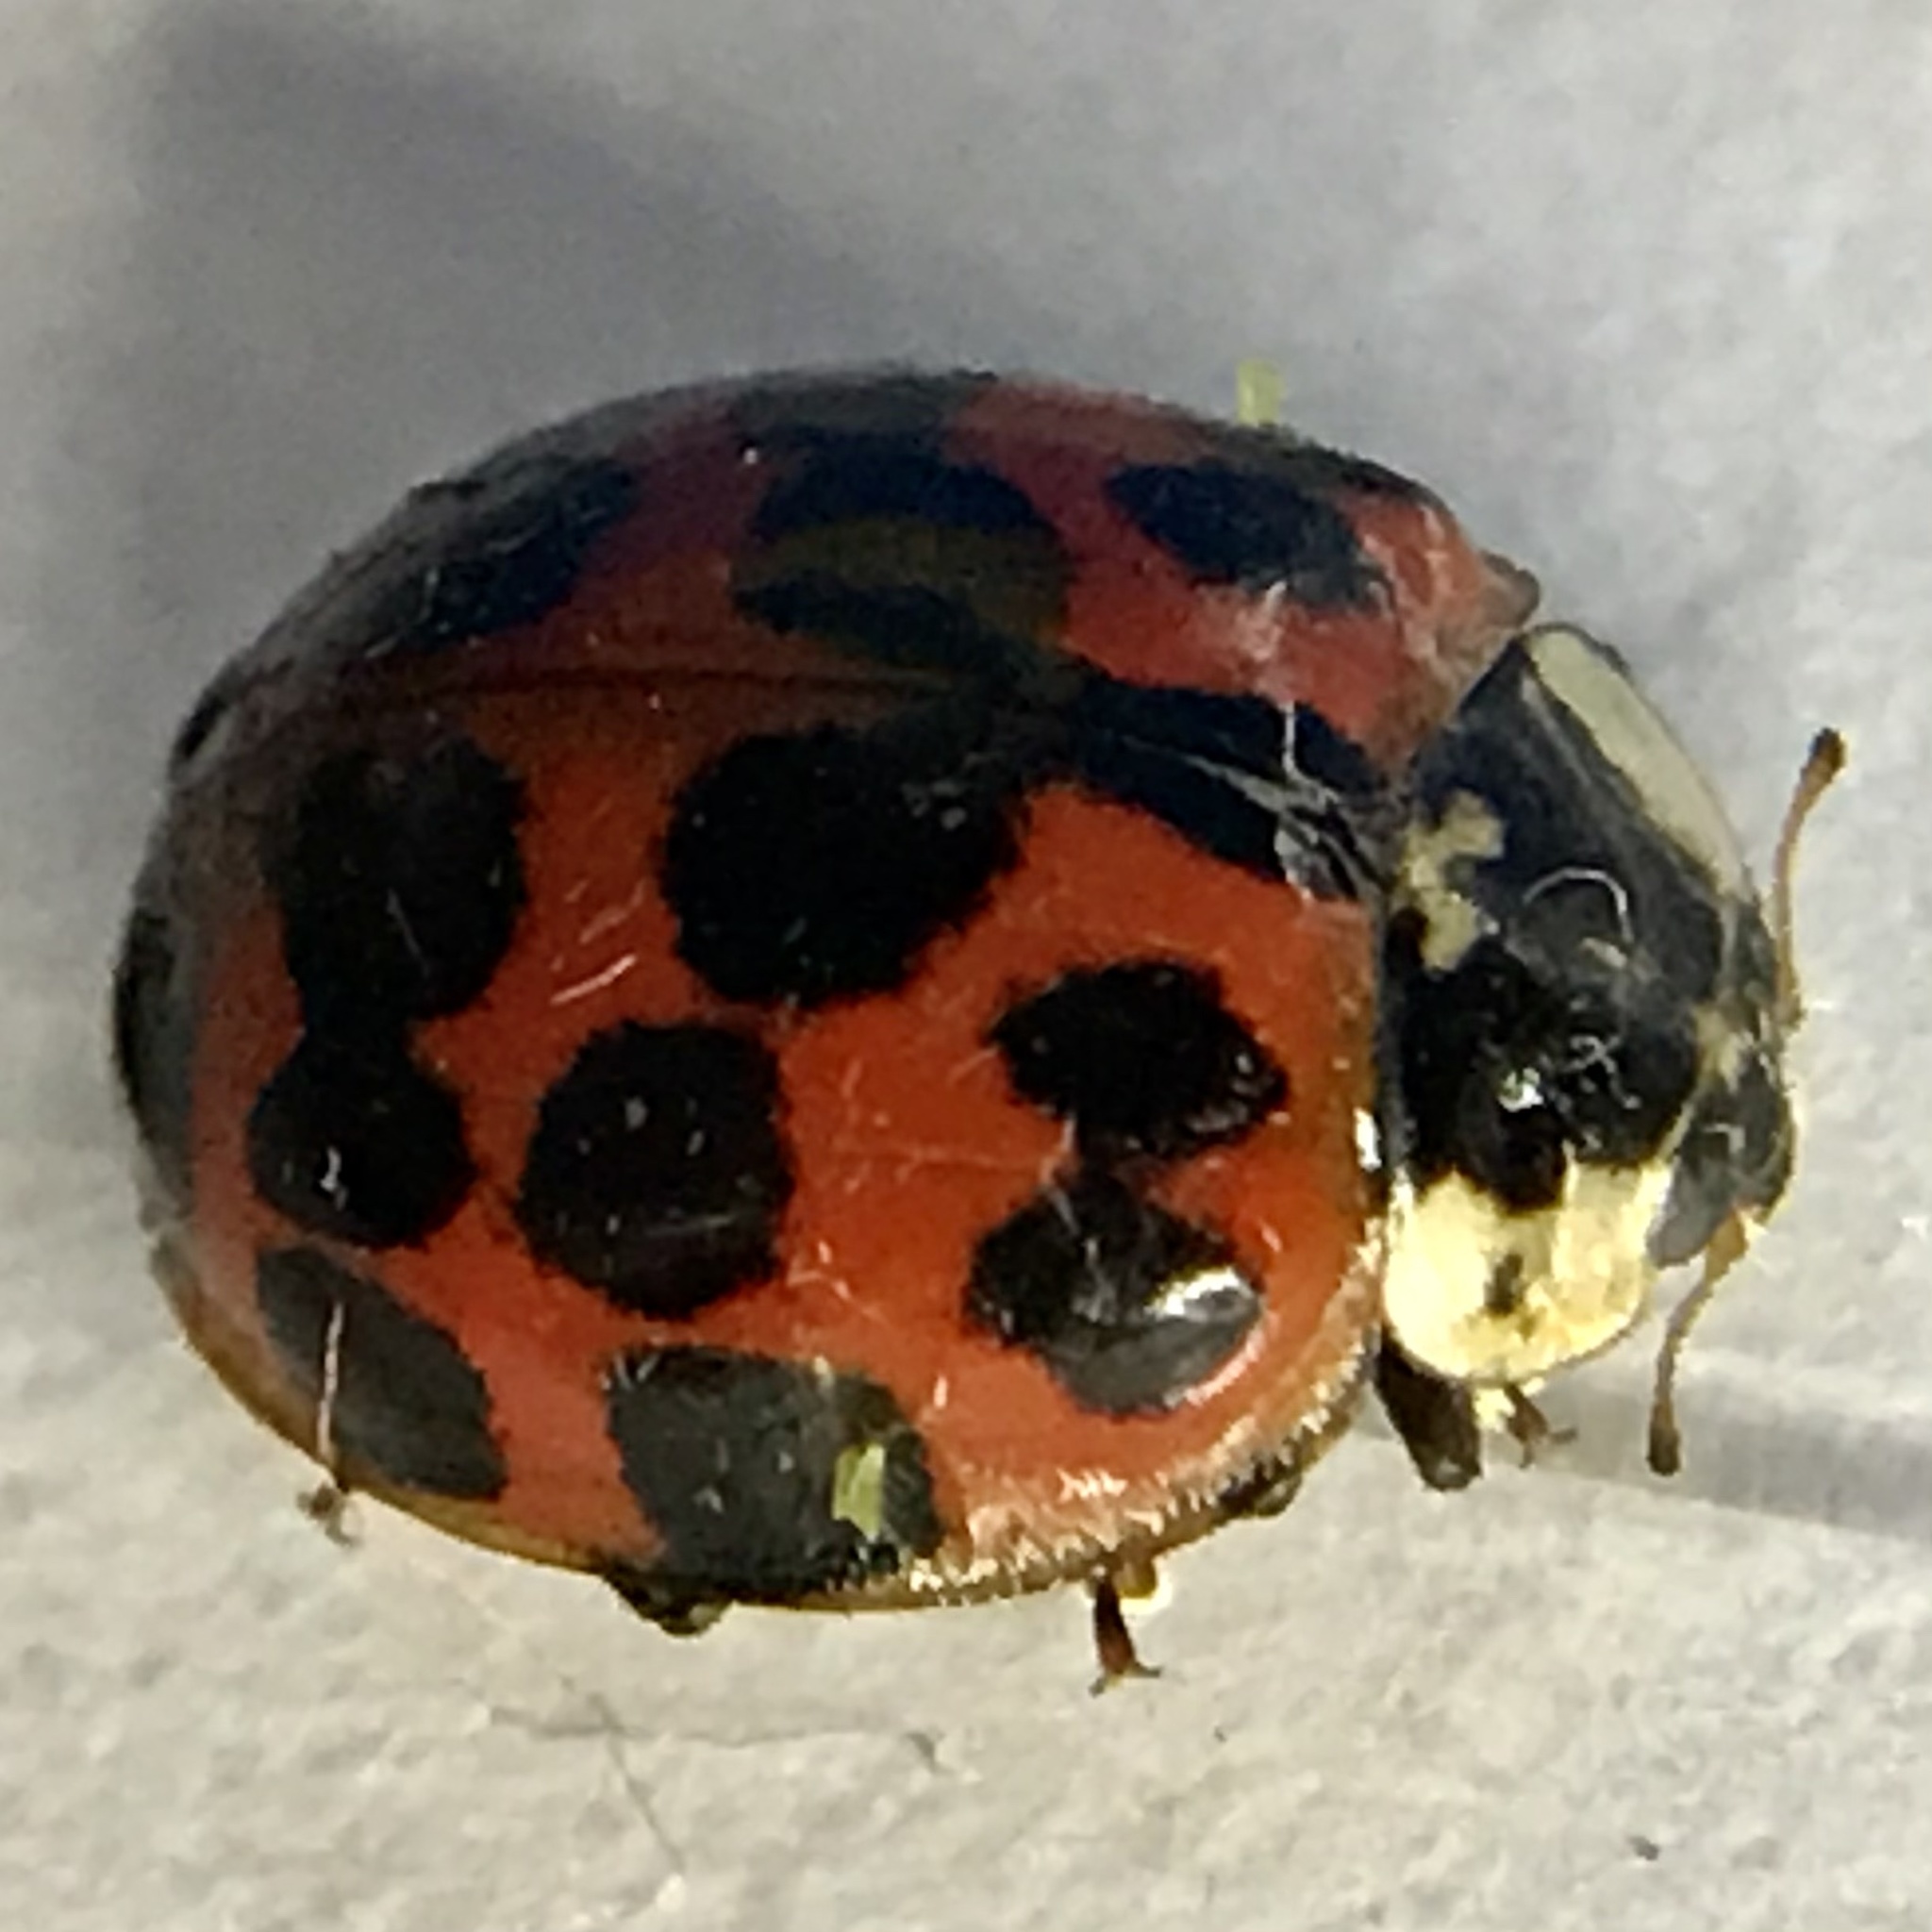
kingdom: Animalia
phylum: Arthropoda
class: Insecta
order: Coleoptera
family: Coccinellidae
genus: Harmonia
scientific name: Harmonia axyridis
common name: Harlequin ladybird
